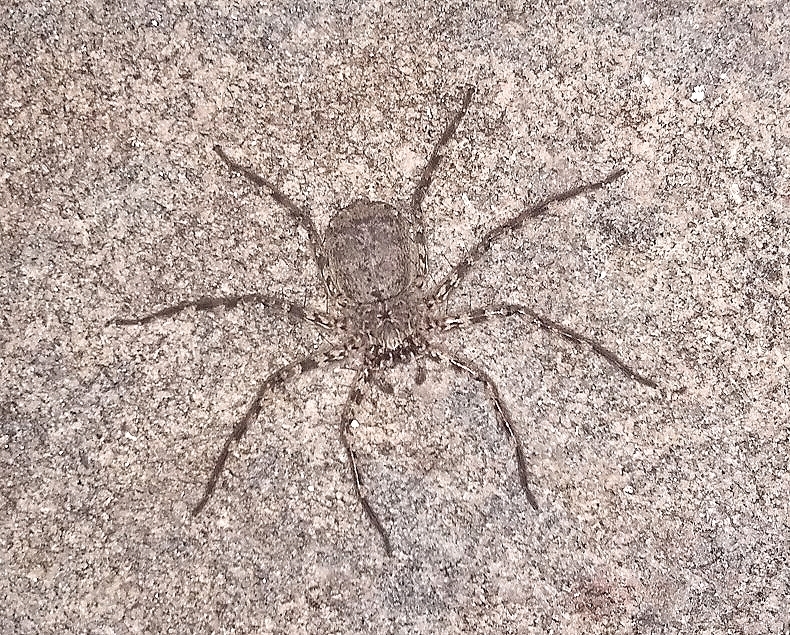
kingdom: Animalia
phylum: Arthropoda
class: Arachnida
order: Araneae
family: Selenopidae
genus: Selenops
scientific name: Selenops
